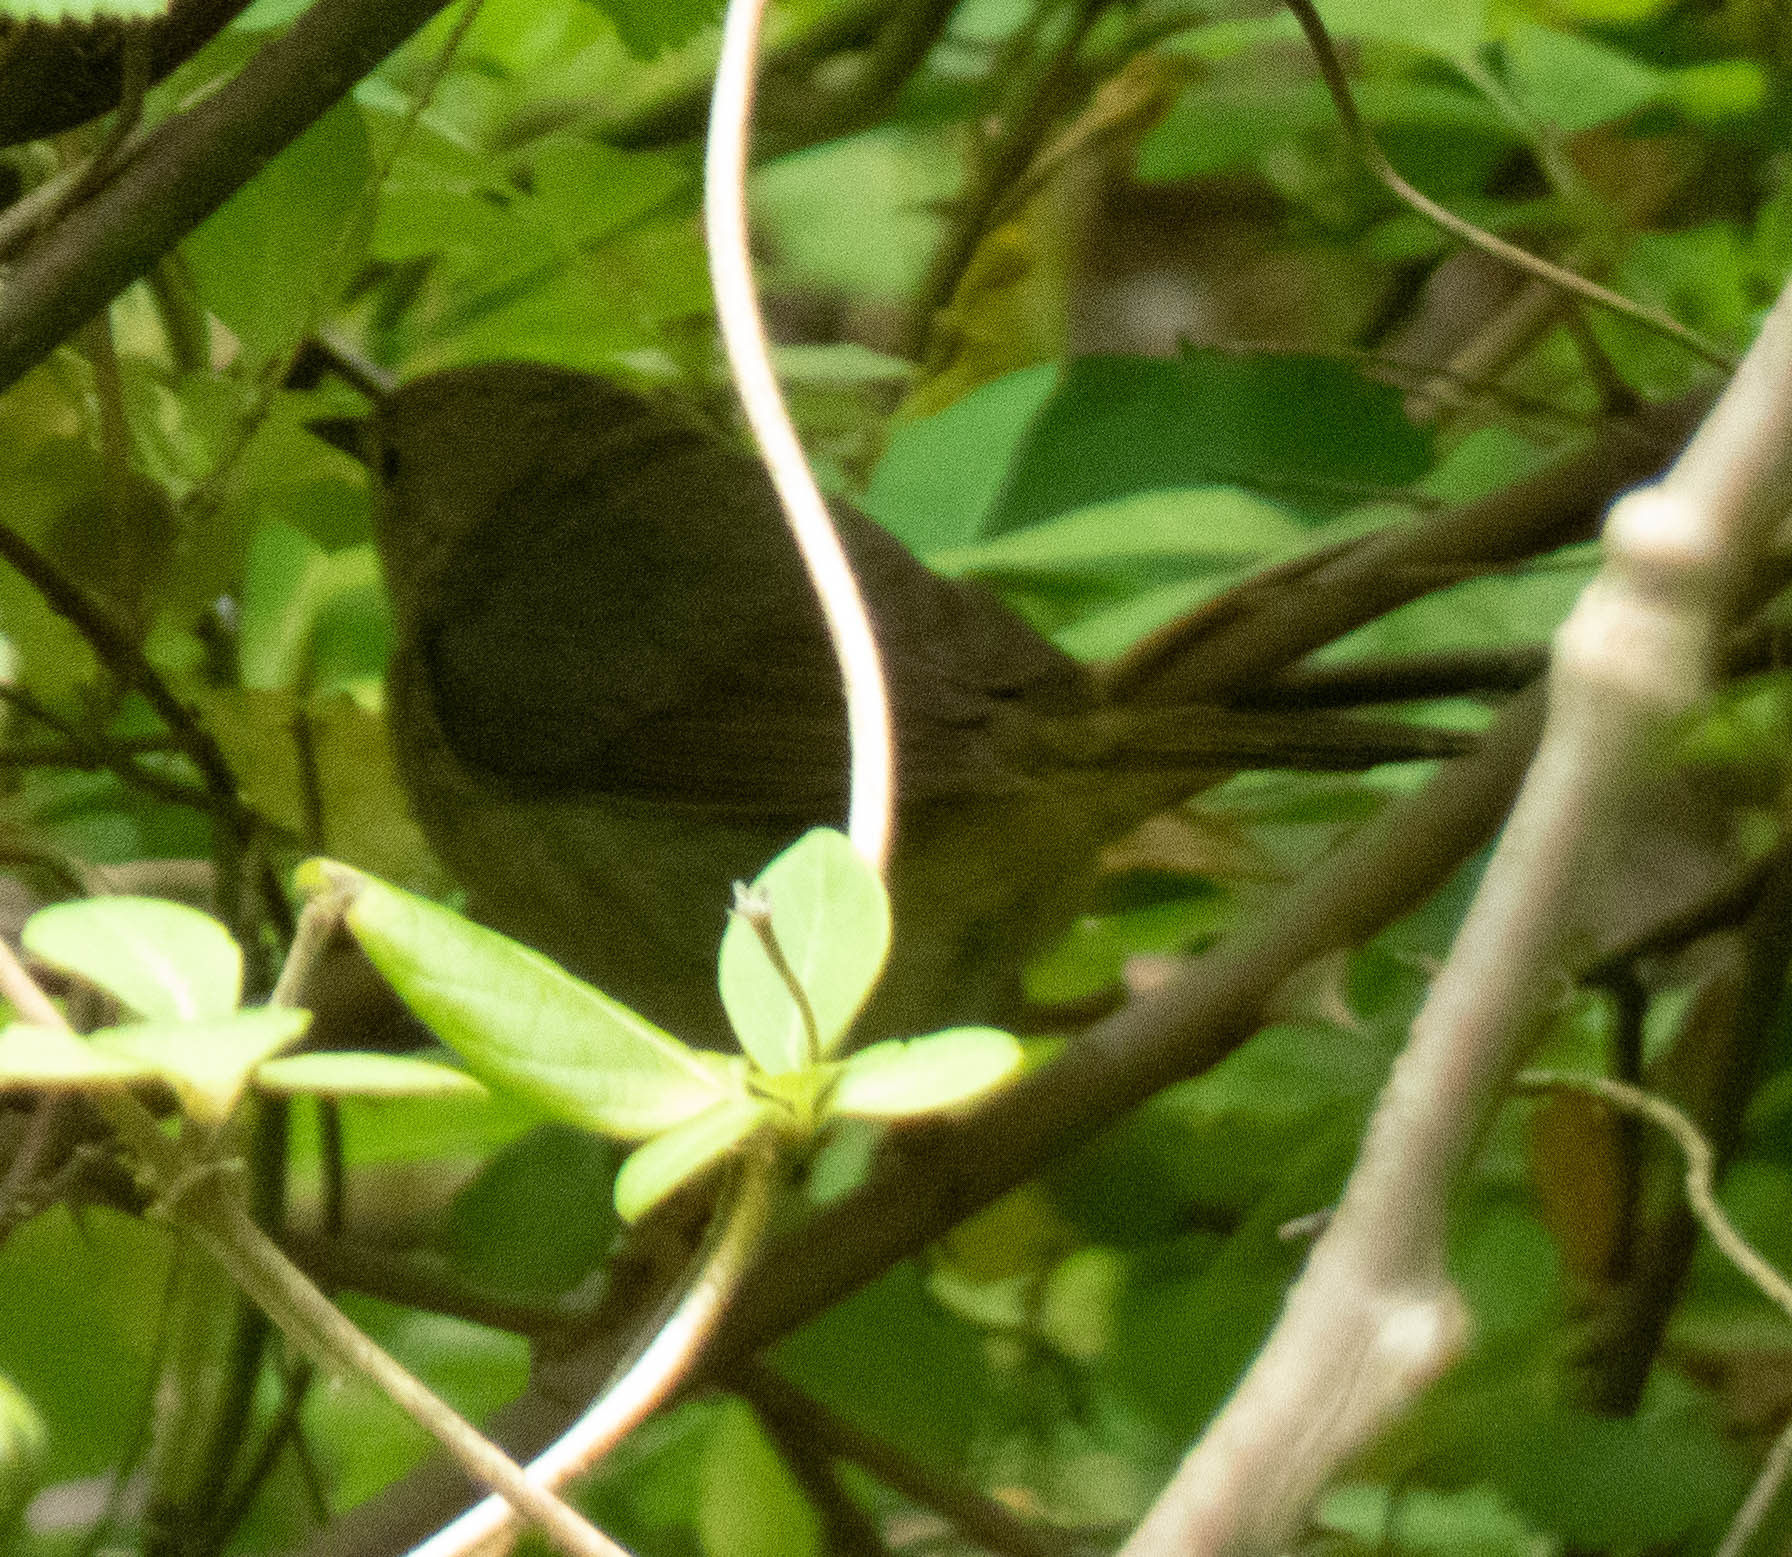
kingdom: Animalia
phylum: Chordata
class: Aves
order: Passeriformes
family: Parulidae
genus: Geothlypis
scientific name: Geothlypis trichas
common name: Common yellowthroat
